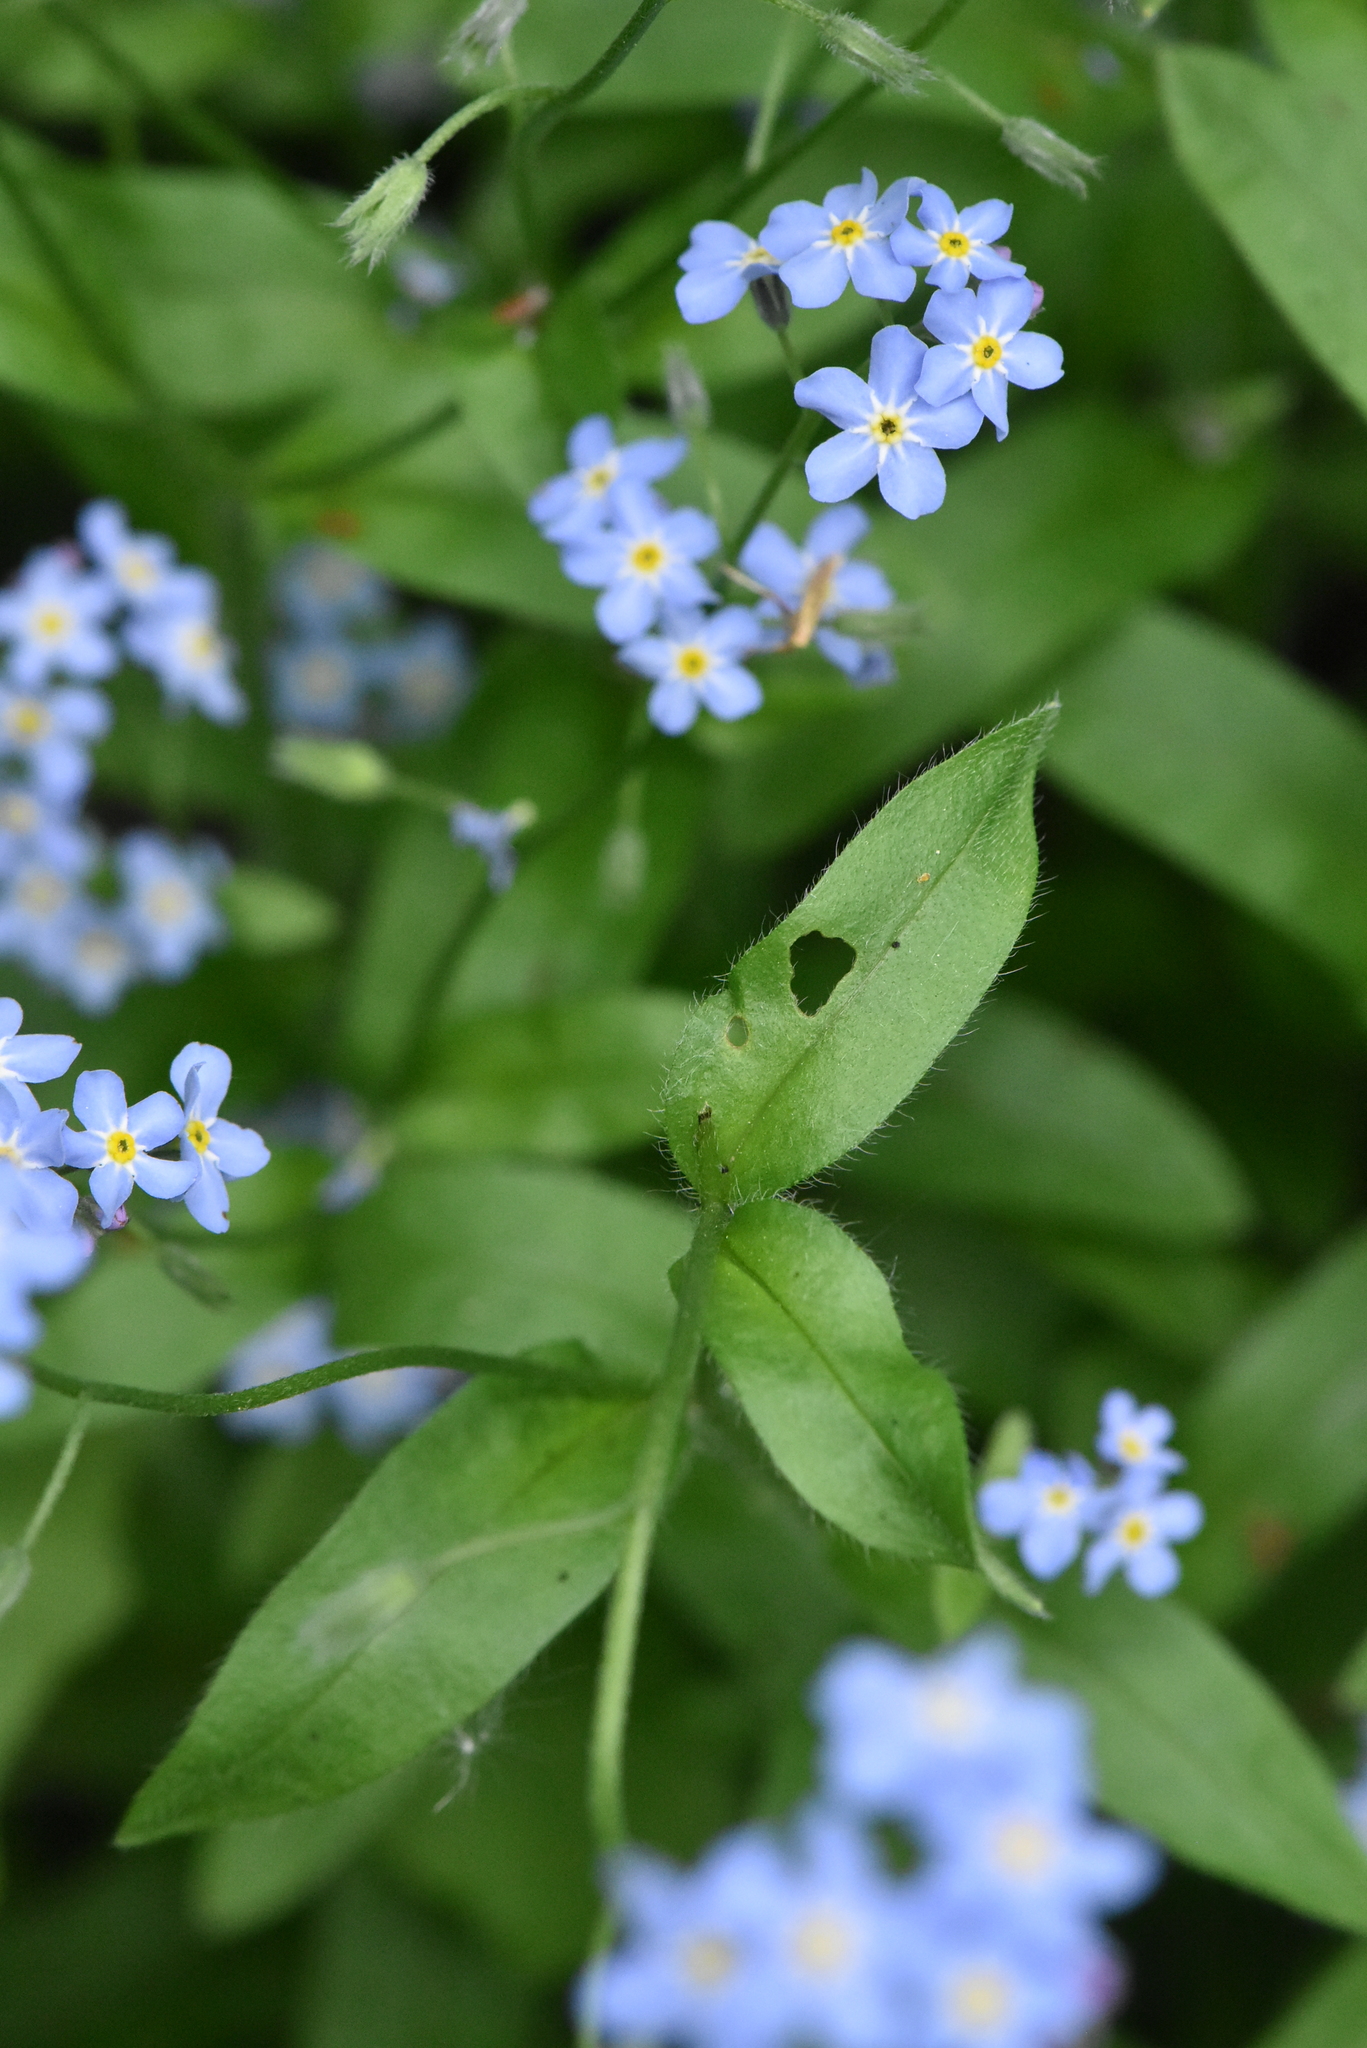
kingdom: Plantae
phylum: Tracheophyta
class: Magnoliopsida
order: Boraginales
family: Boraginaceae
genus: Myosotis
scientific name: Myosotis sylvatica
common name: Wood forget-me-not
